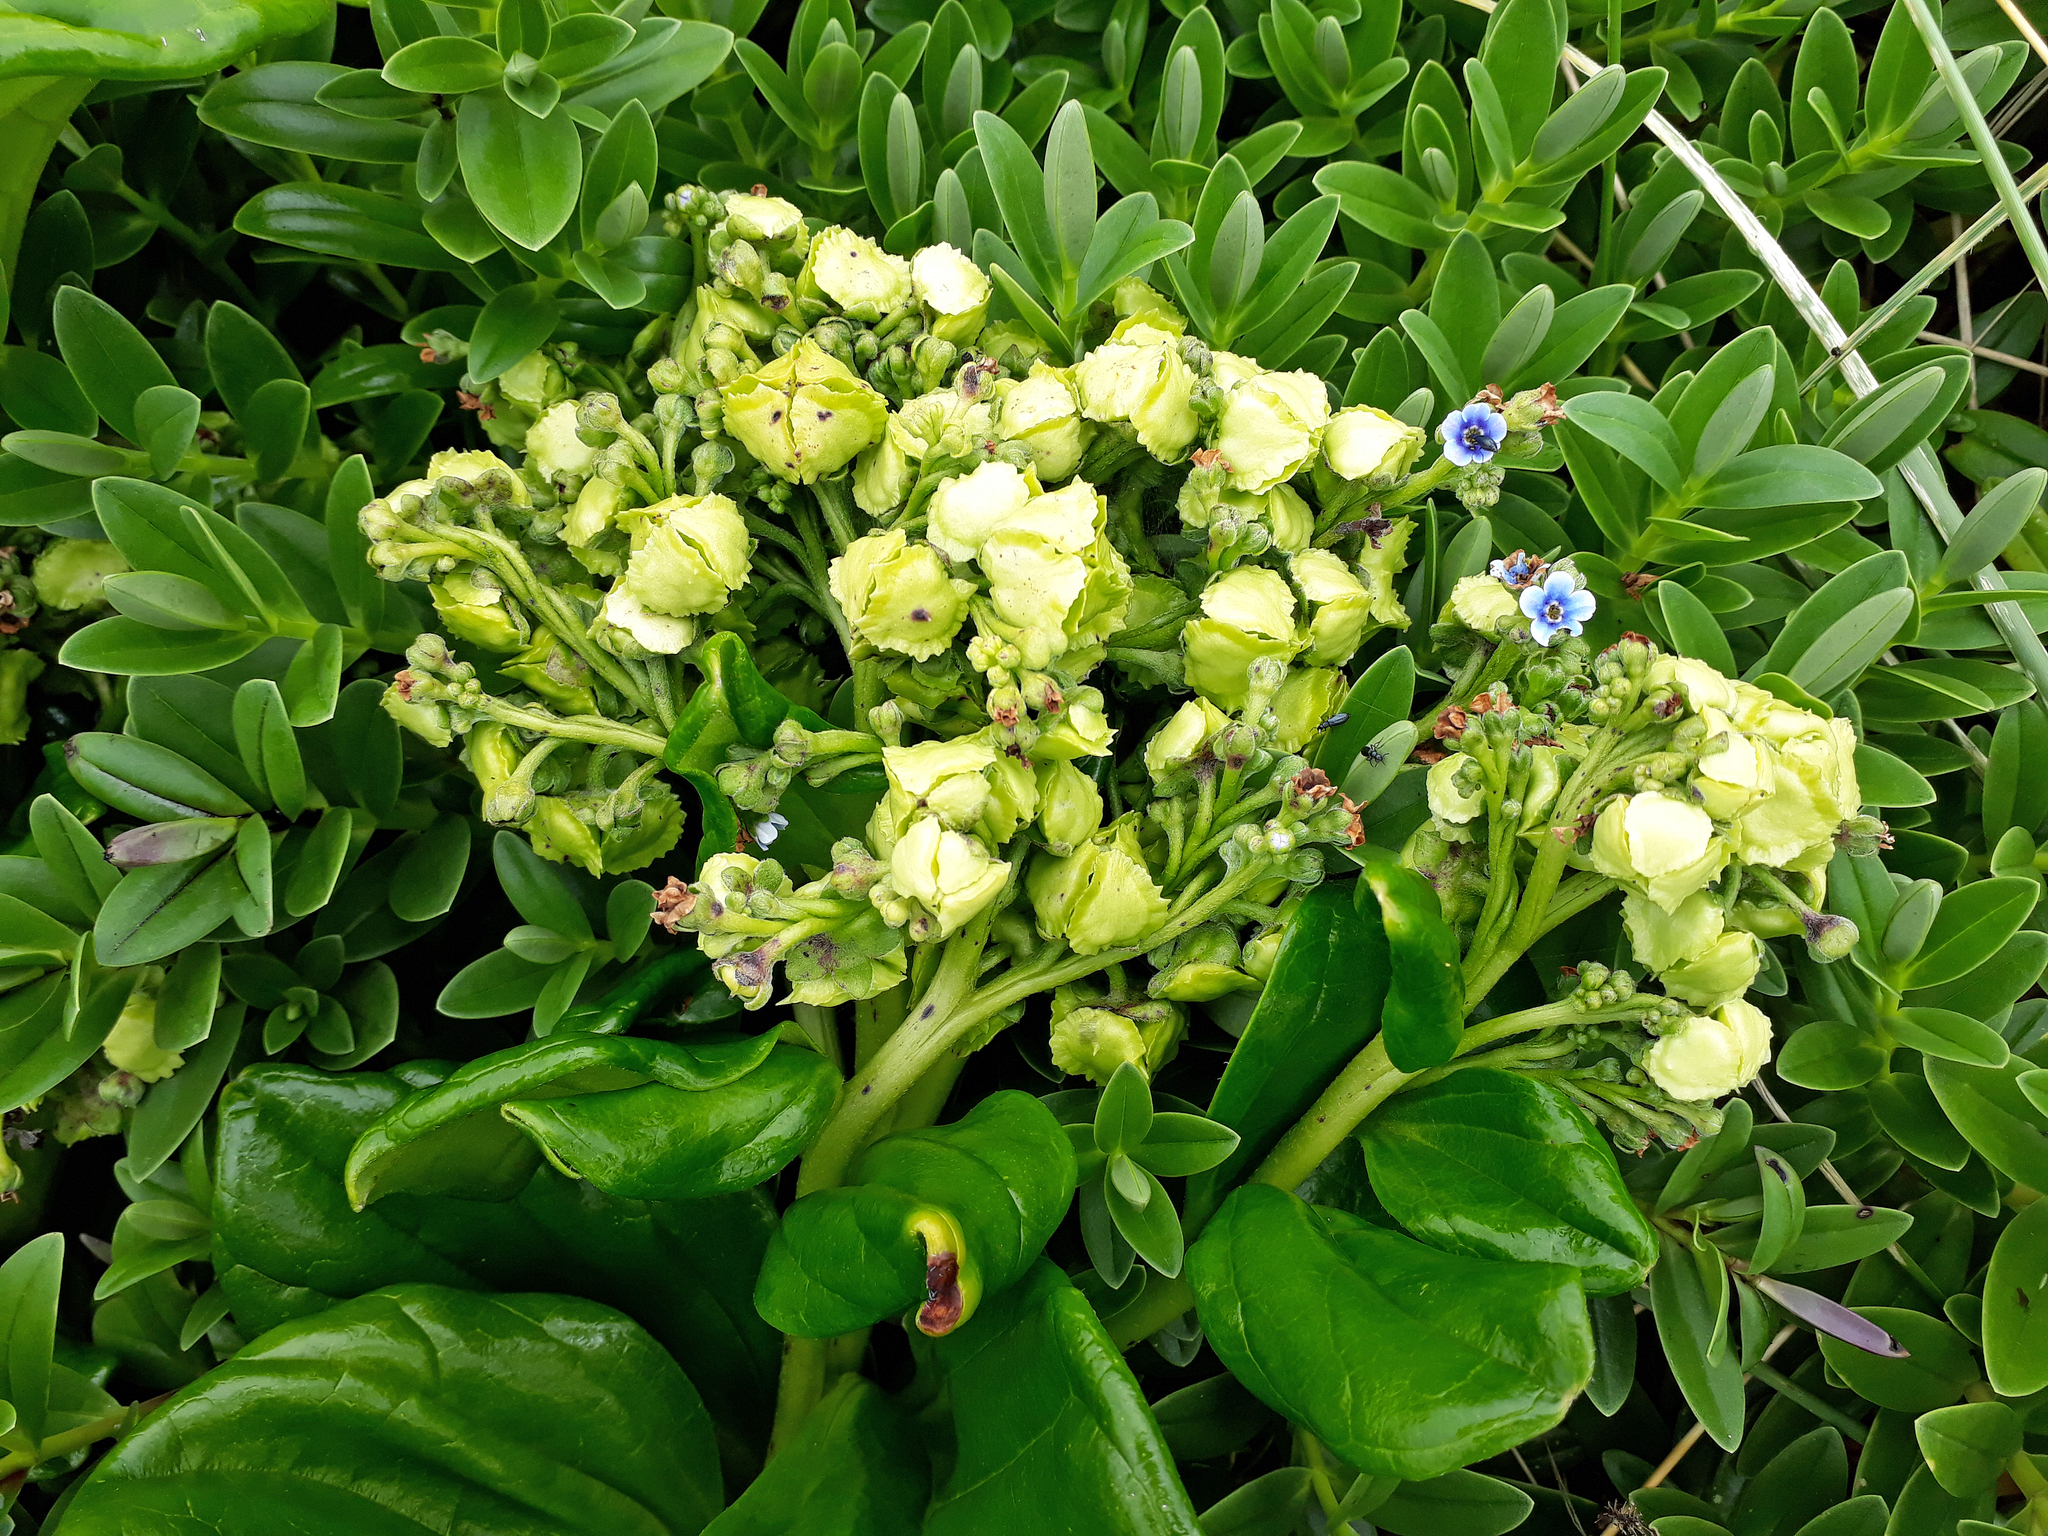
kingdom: Plantae
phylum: Tracheophyta
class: Magnoliopsida
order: Boraginales
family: Boraginaceae
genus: Myosotidium
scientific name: Myosotidium hortensia
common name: Giant forget-me-not
